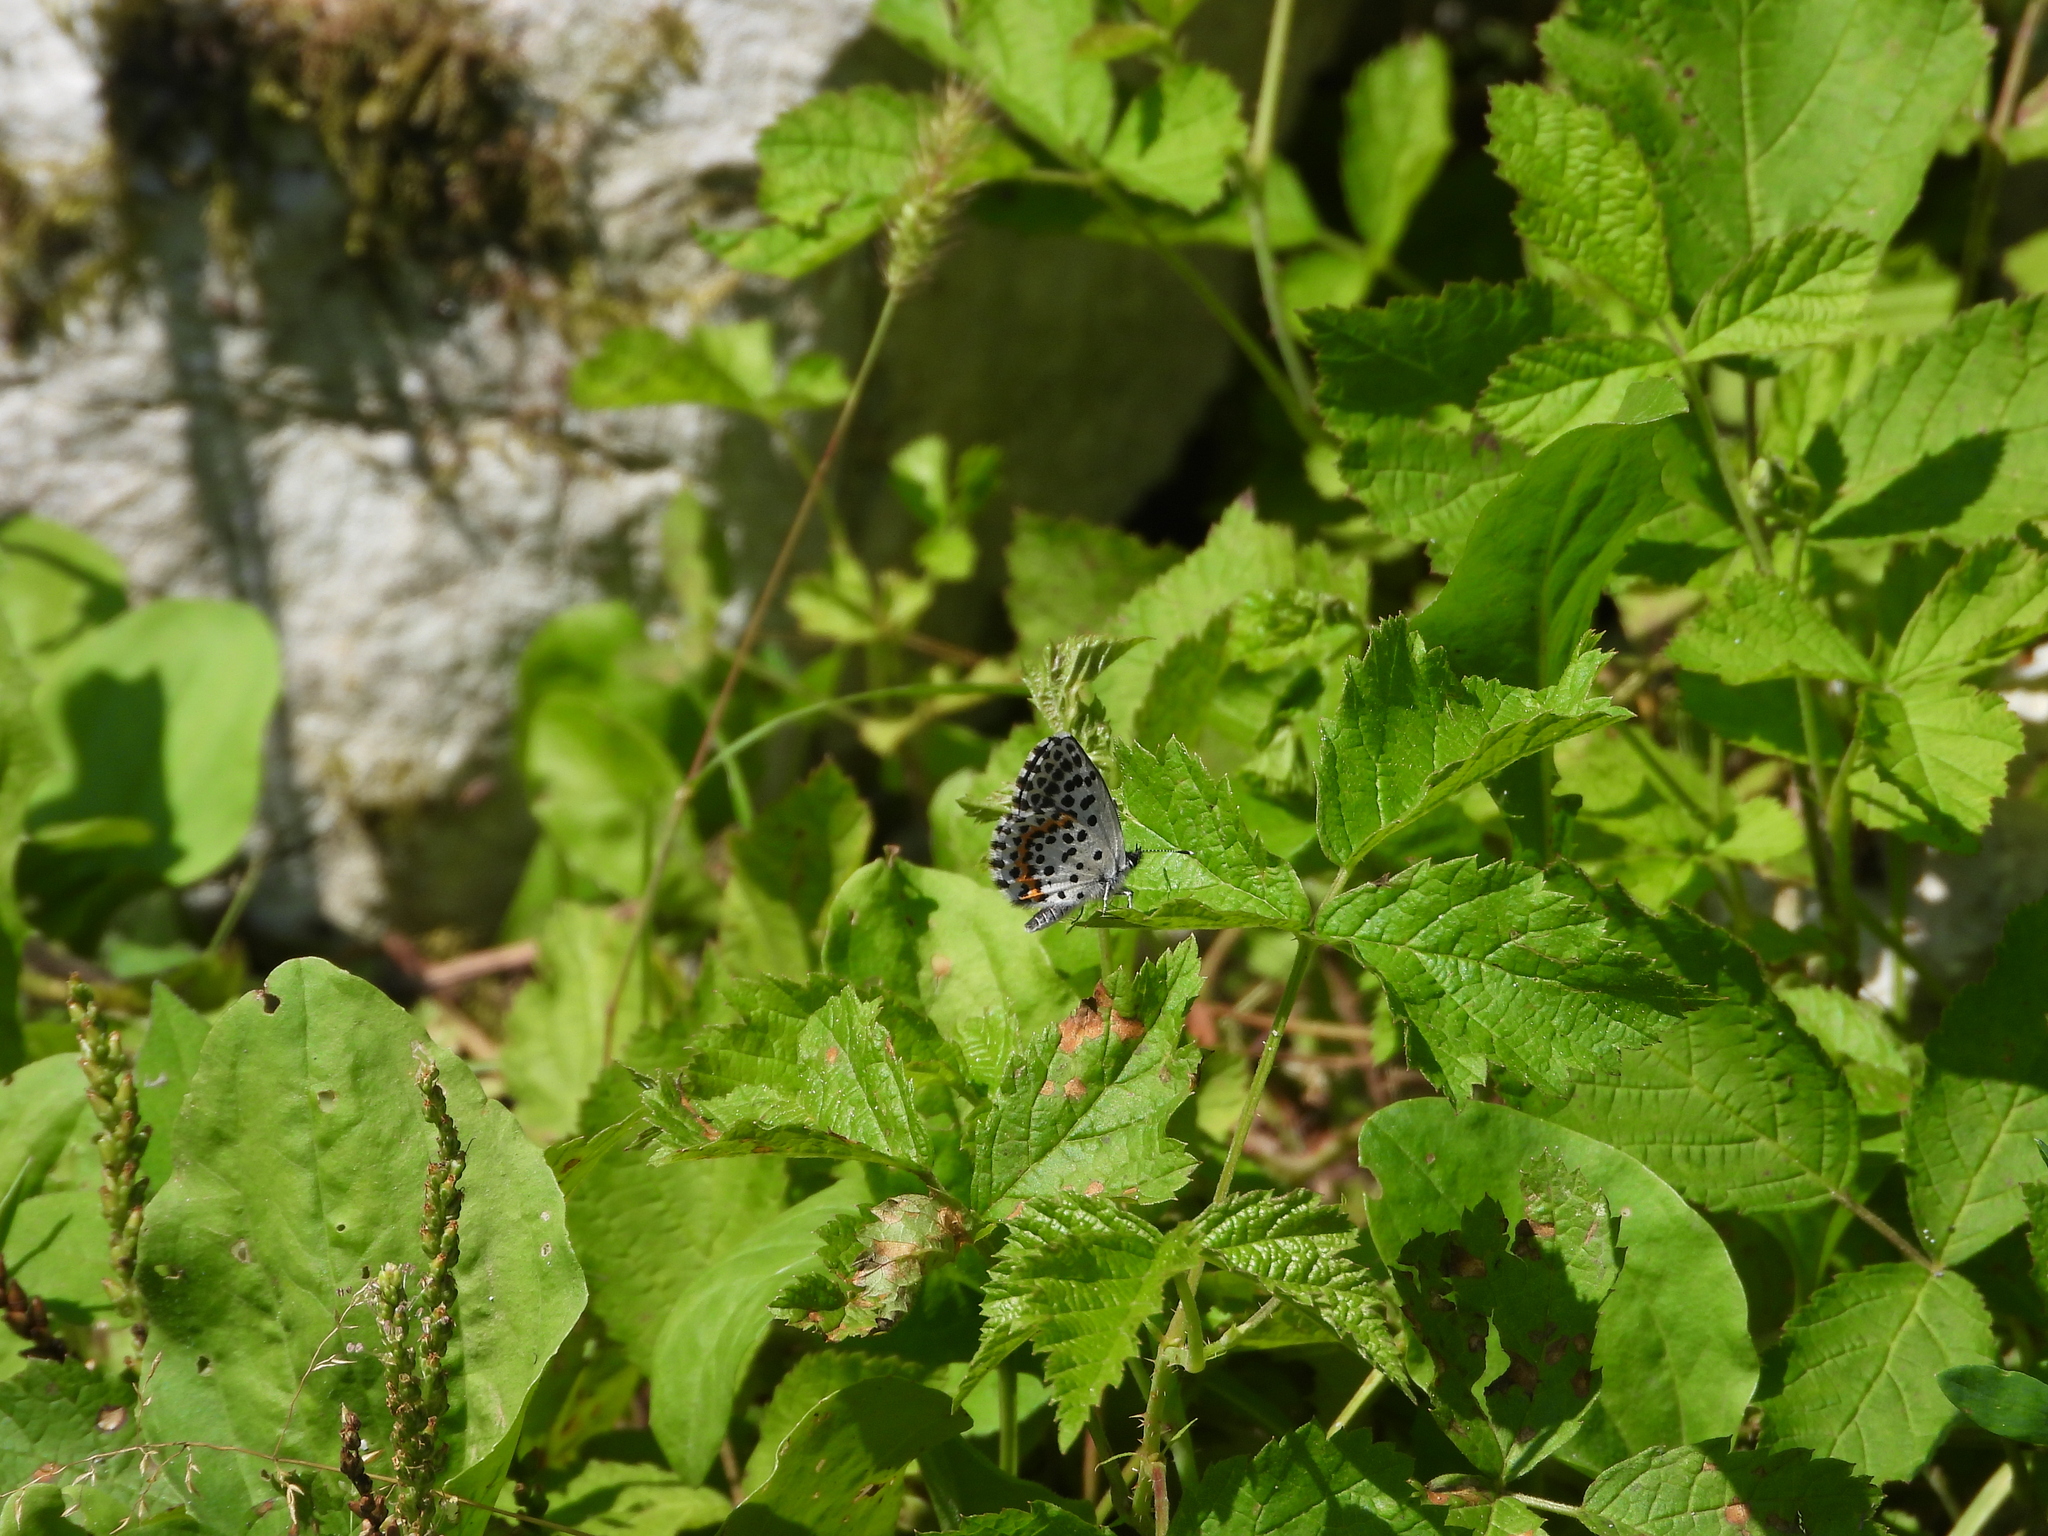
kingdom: Animalia
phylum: Arthropoda
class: Insecta
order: Lepidoptera
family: Lycaenidae
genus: Scolitantides
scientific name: Scolitantides orion
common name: Chequered blue
